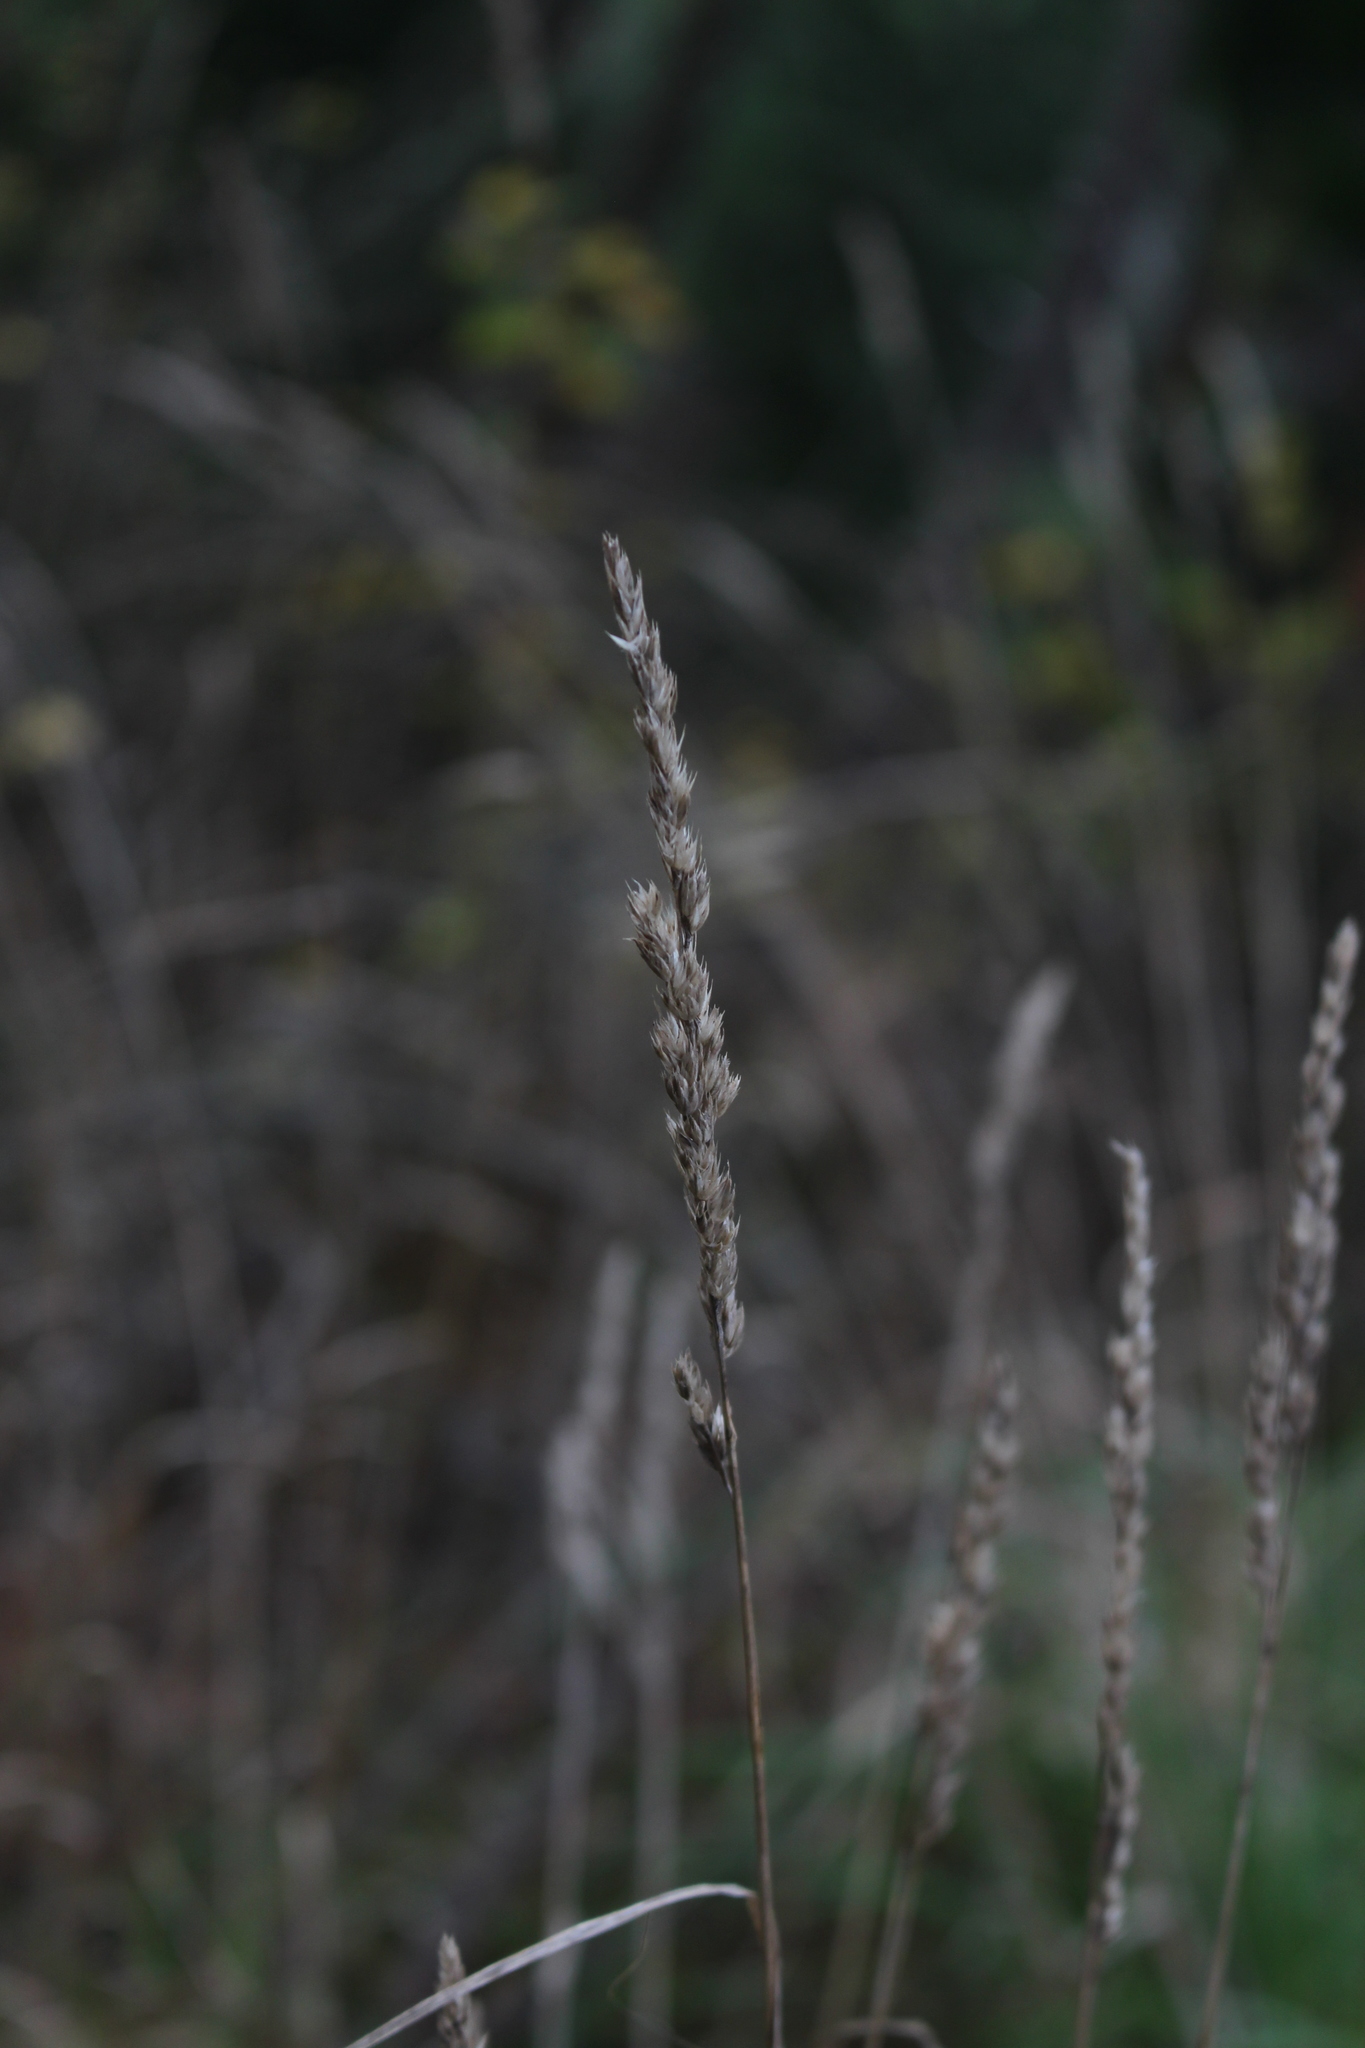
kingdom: Plantae
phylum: Tracheophyta
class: Liliopsida
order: Poales
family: Poaceae
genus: Dactylis
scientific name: Dactylis glomerata
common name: Orchardgrass
